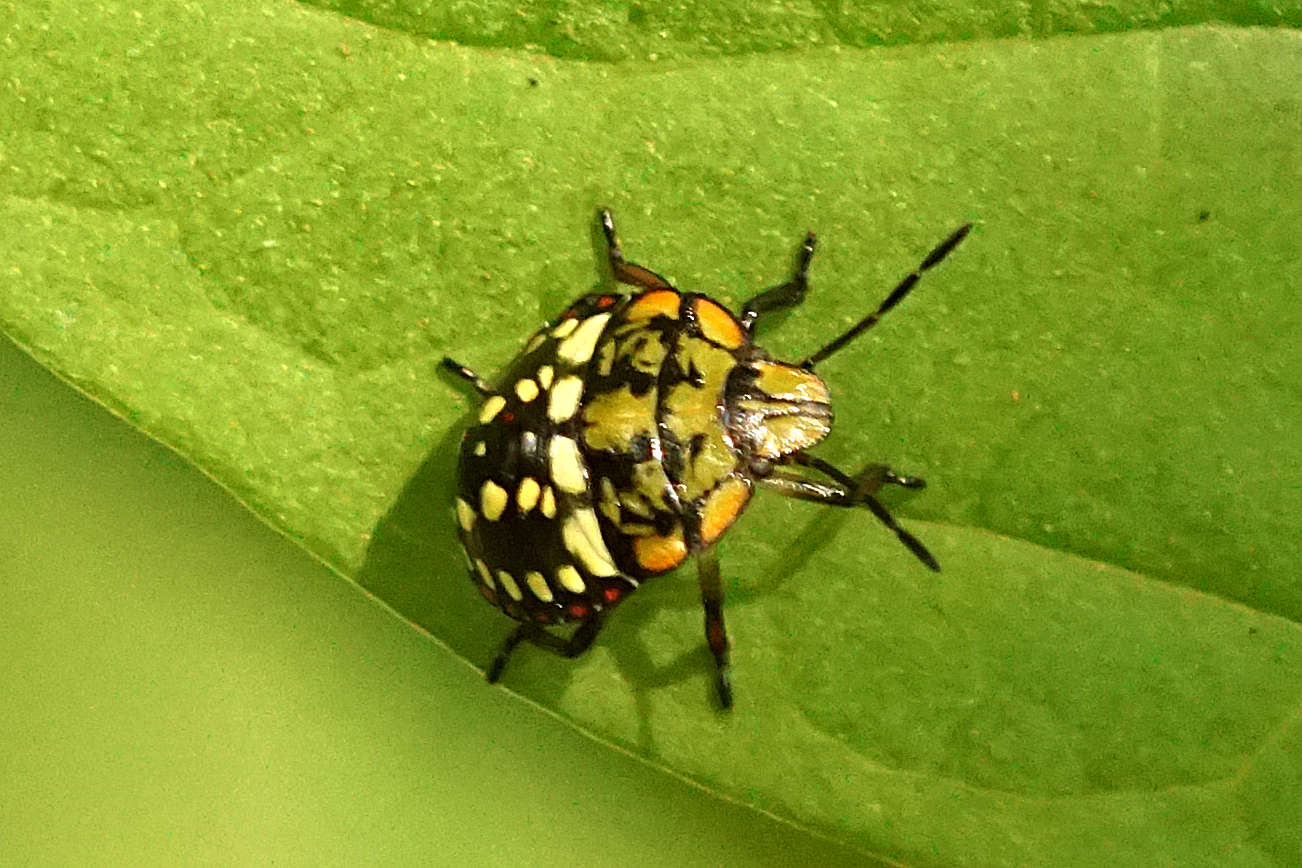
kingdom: Animalia
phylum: Arthropoda
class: Insecta
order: Hemiptera
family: Pentatomidae
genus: Nezara
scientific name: Nezara viridula
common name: Southern green stink bug
